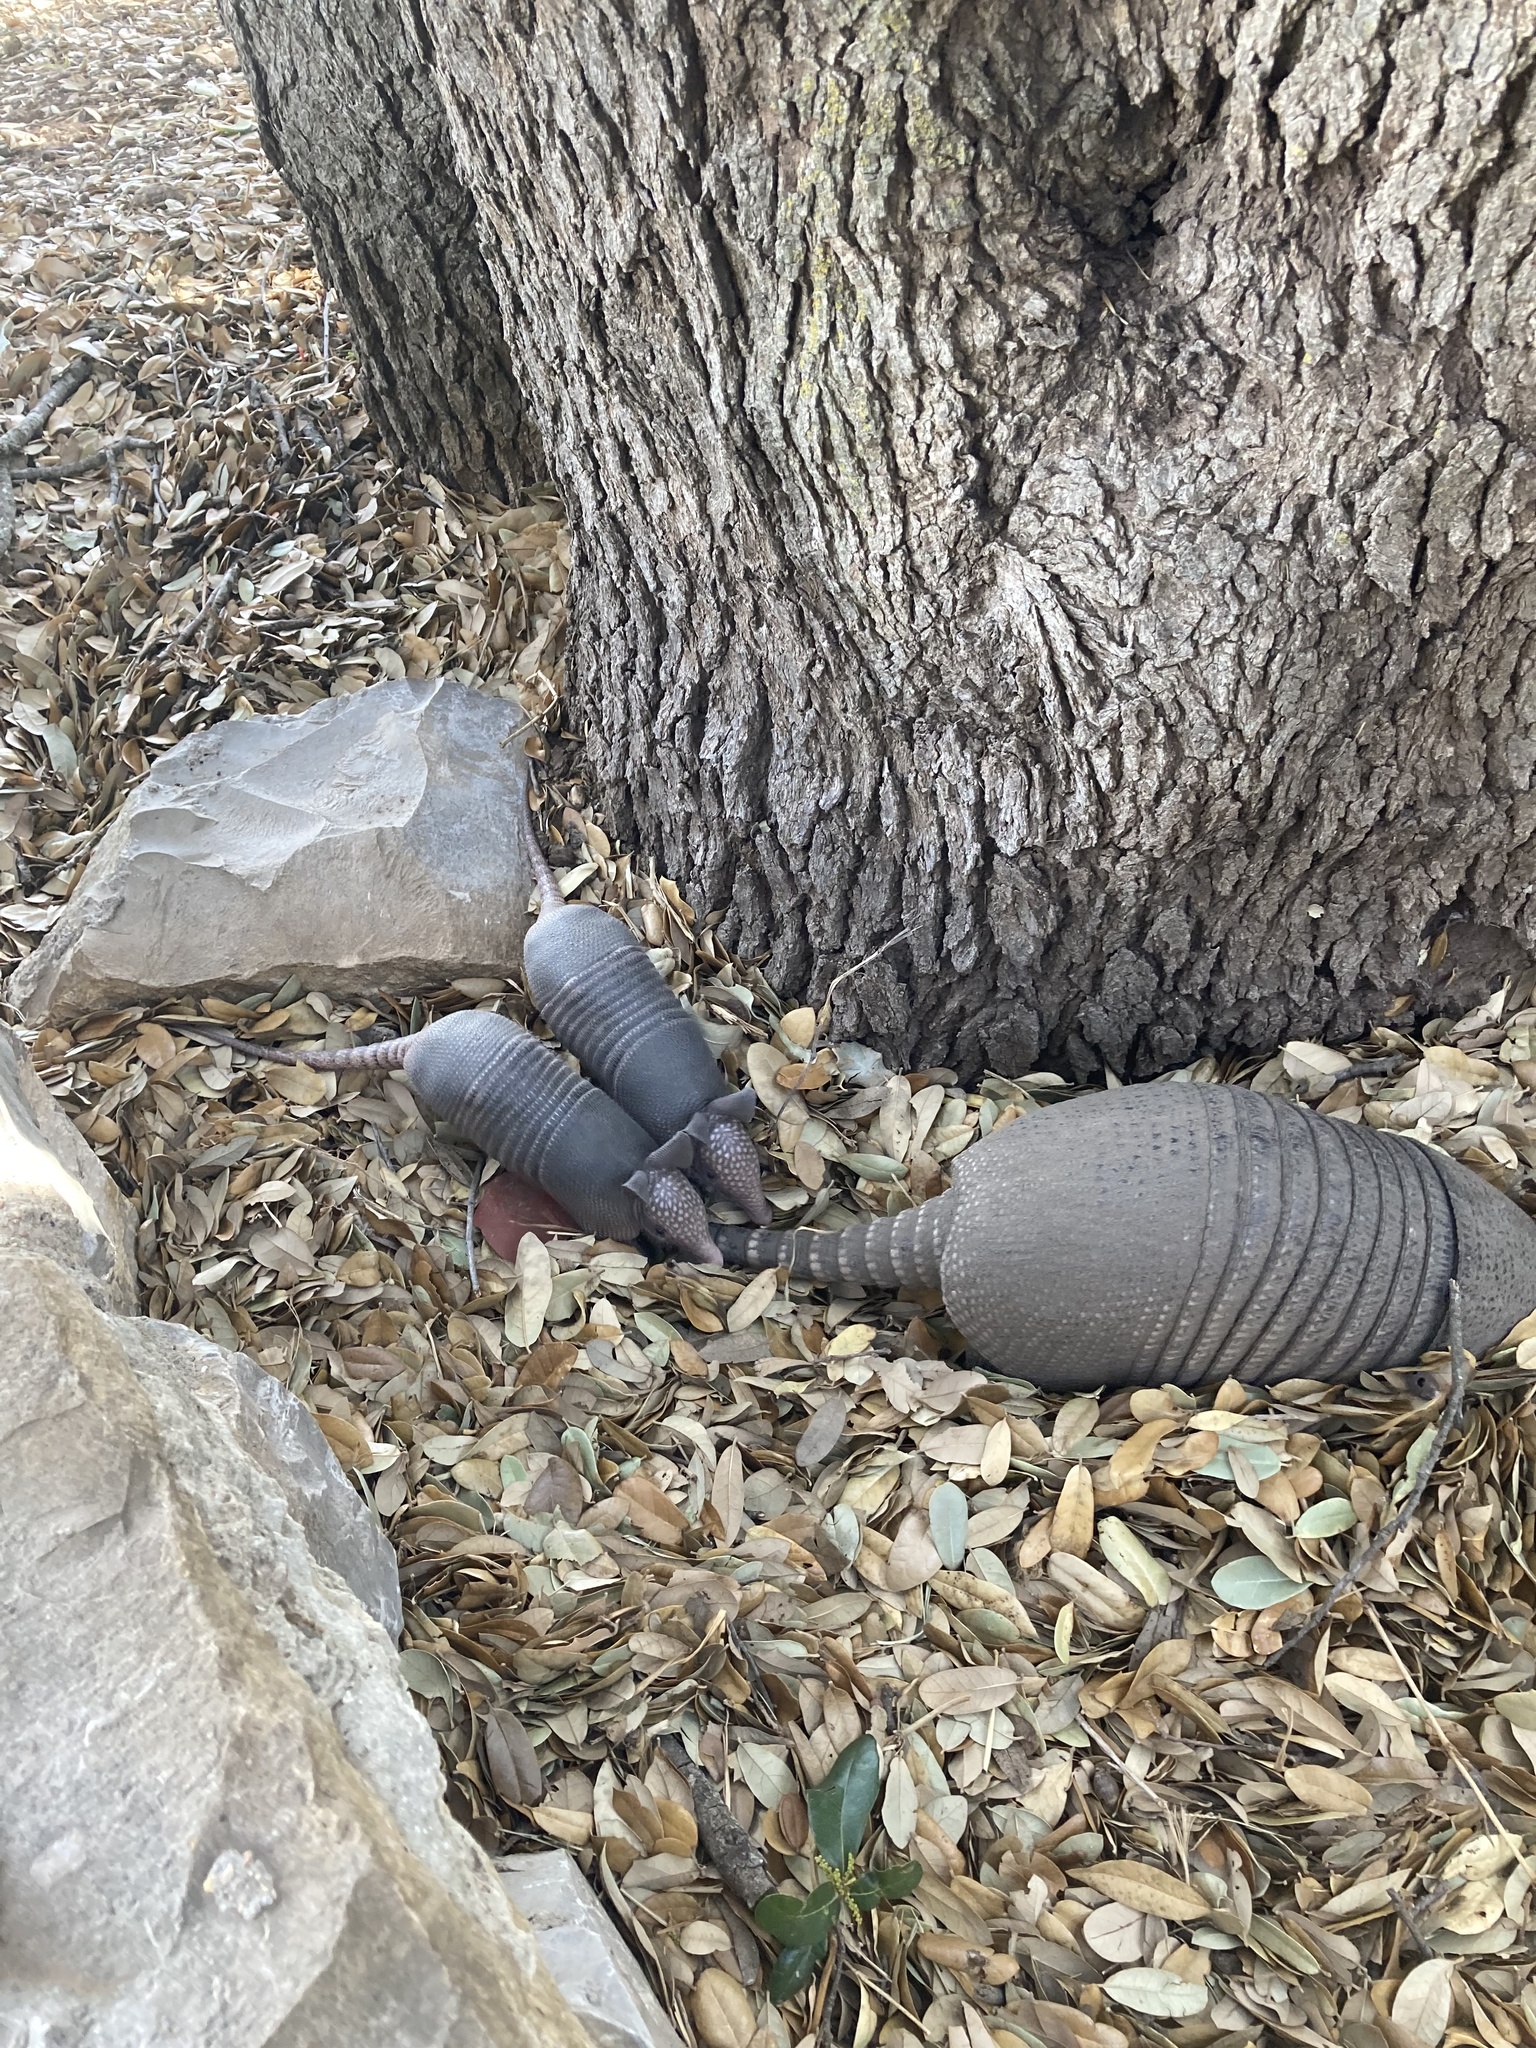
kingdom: Animalia
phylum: Chordata
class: Mammalia
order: Cingulata
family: Dasypodidae
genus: Dasypus
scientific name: Dasypus novemcinctus
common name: Nine-banded armadillo
